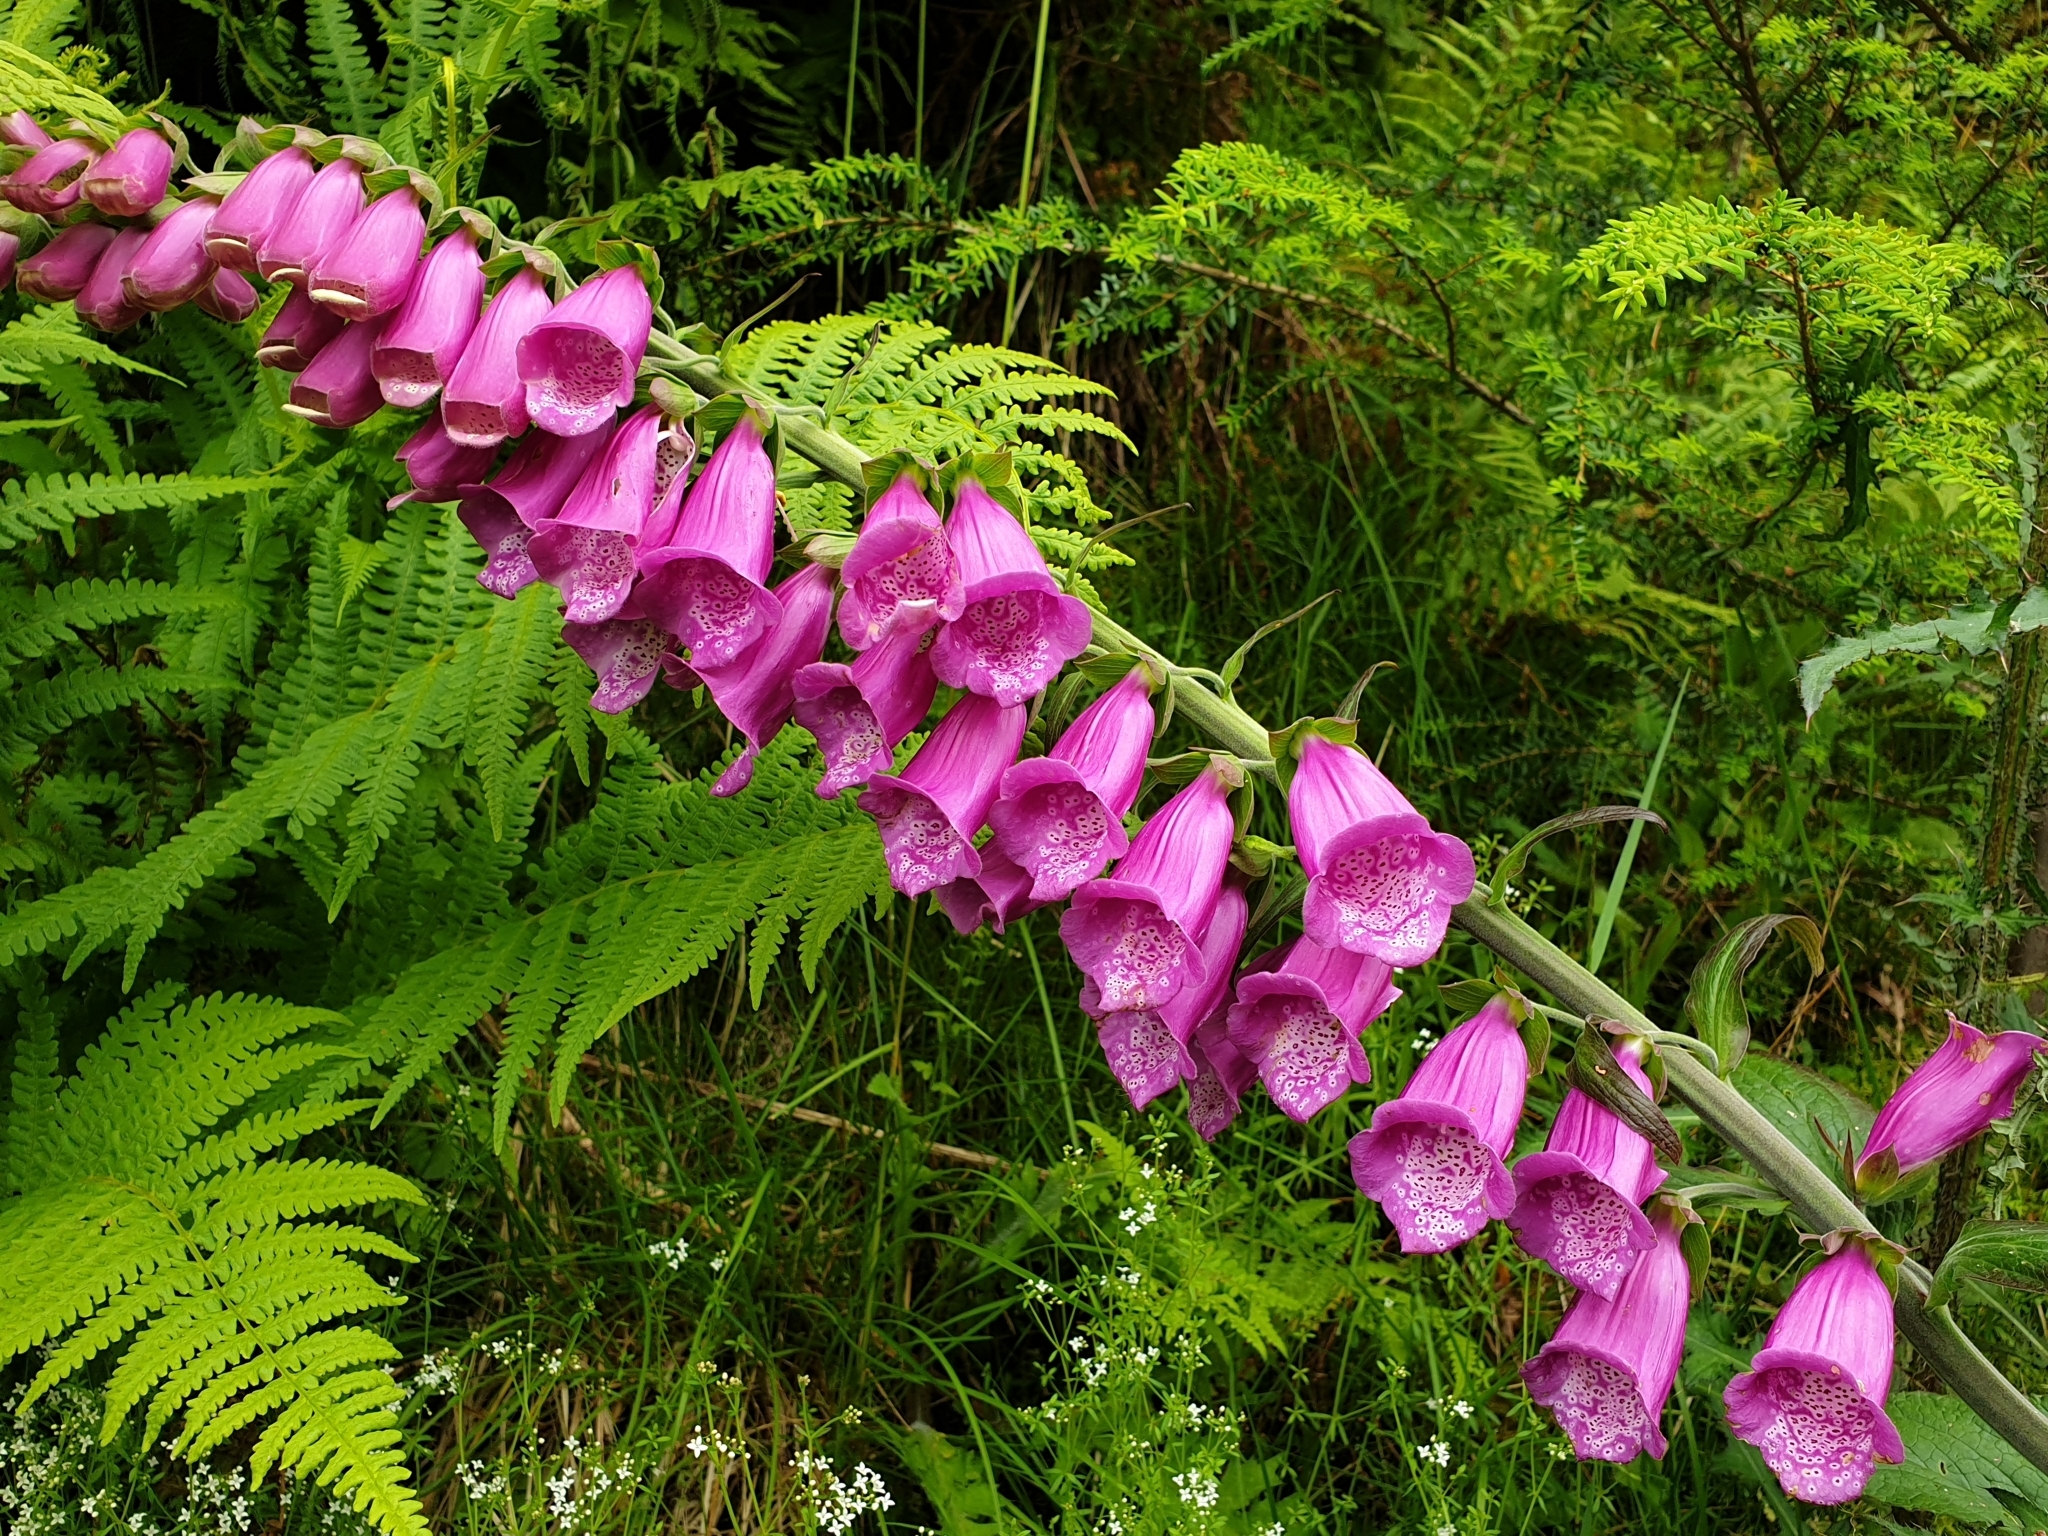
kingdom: Plantae
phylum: Tracheophyta
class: Magnoliopsida
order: Lamiales
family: Plantaginaceae
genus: Digitalis
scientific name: Digitalis purpurea
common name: Foxglove
